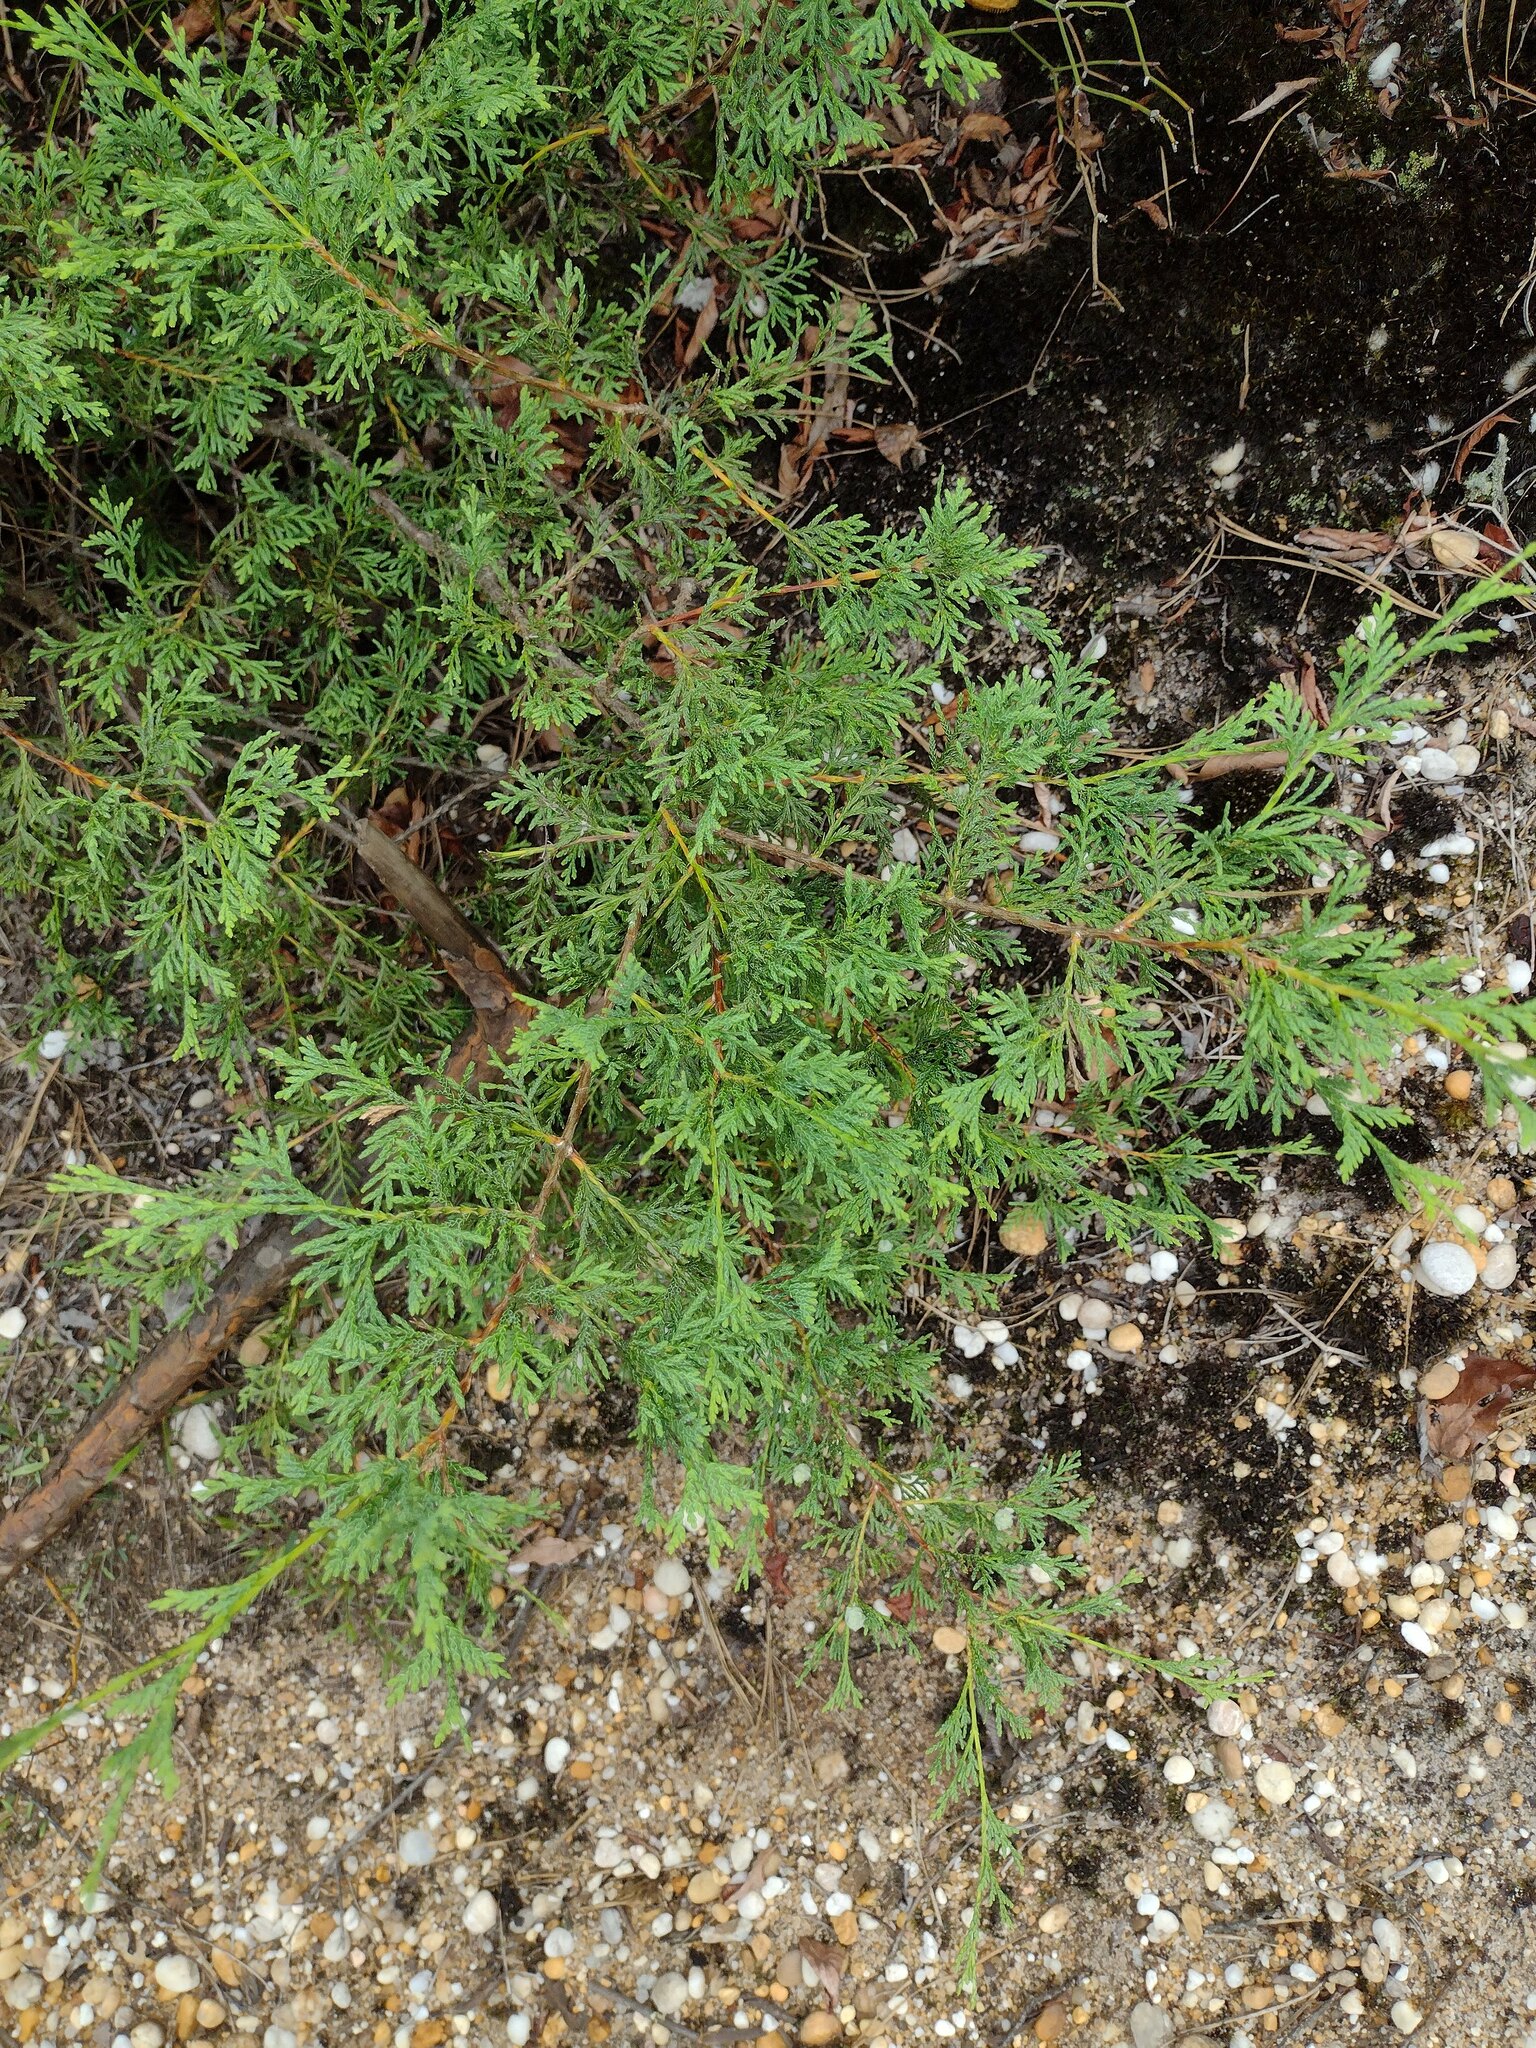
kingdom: Plantae
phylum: Tracheophyta
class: Pinopsida
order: Pinales
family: Cupressaceae
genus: Chamaecyparis
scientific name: Chamaecyparis thyoides
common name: Atlantic white cedar
